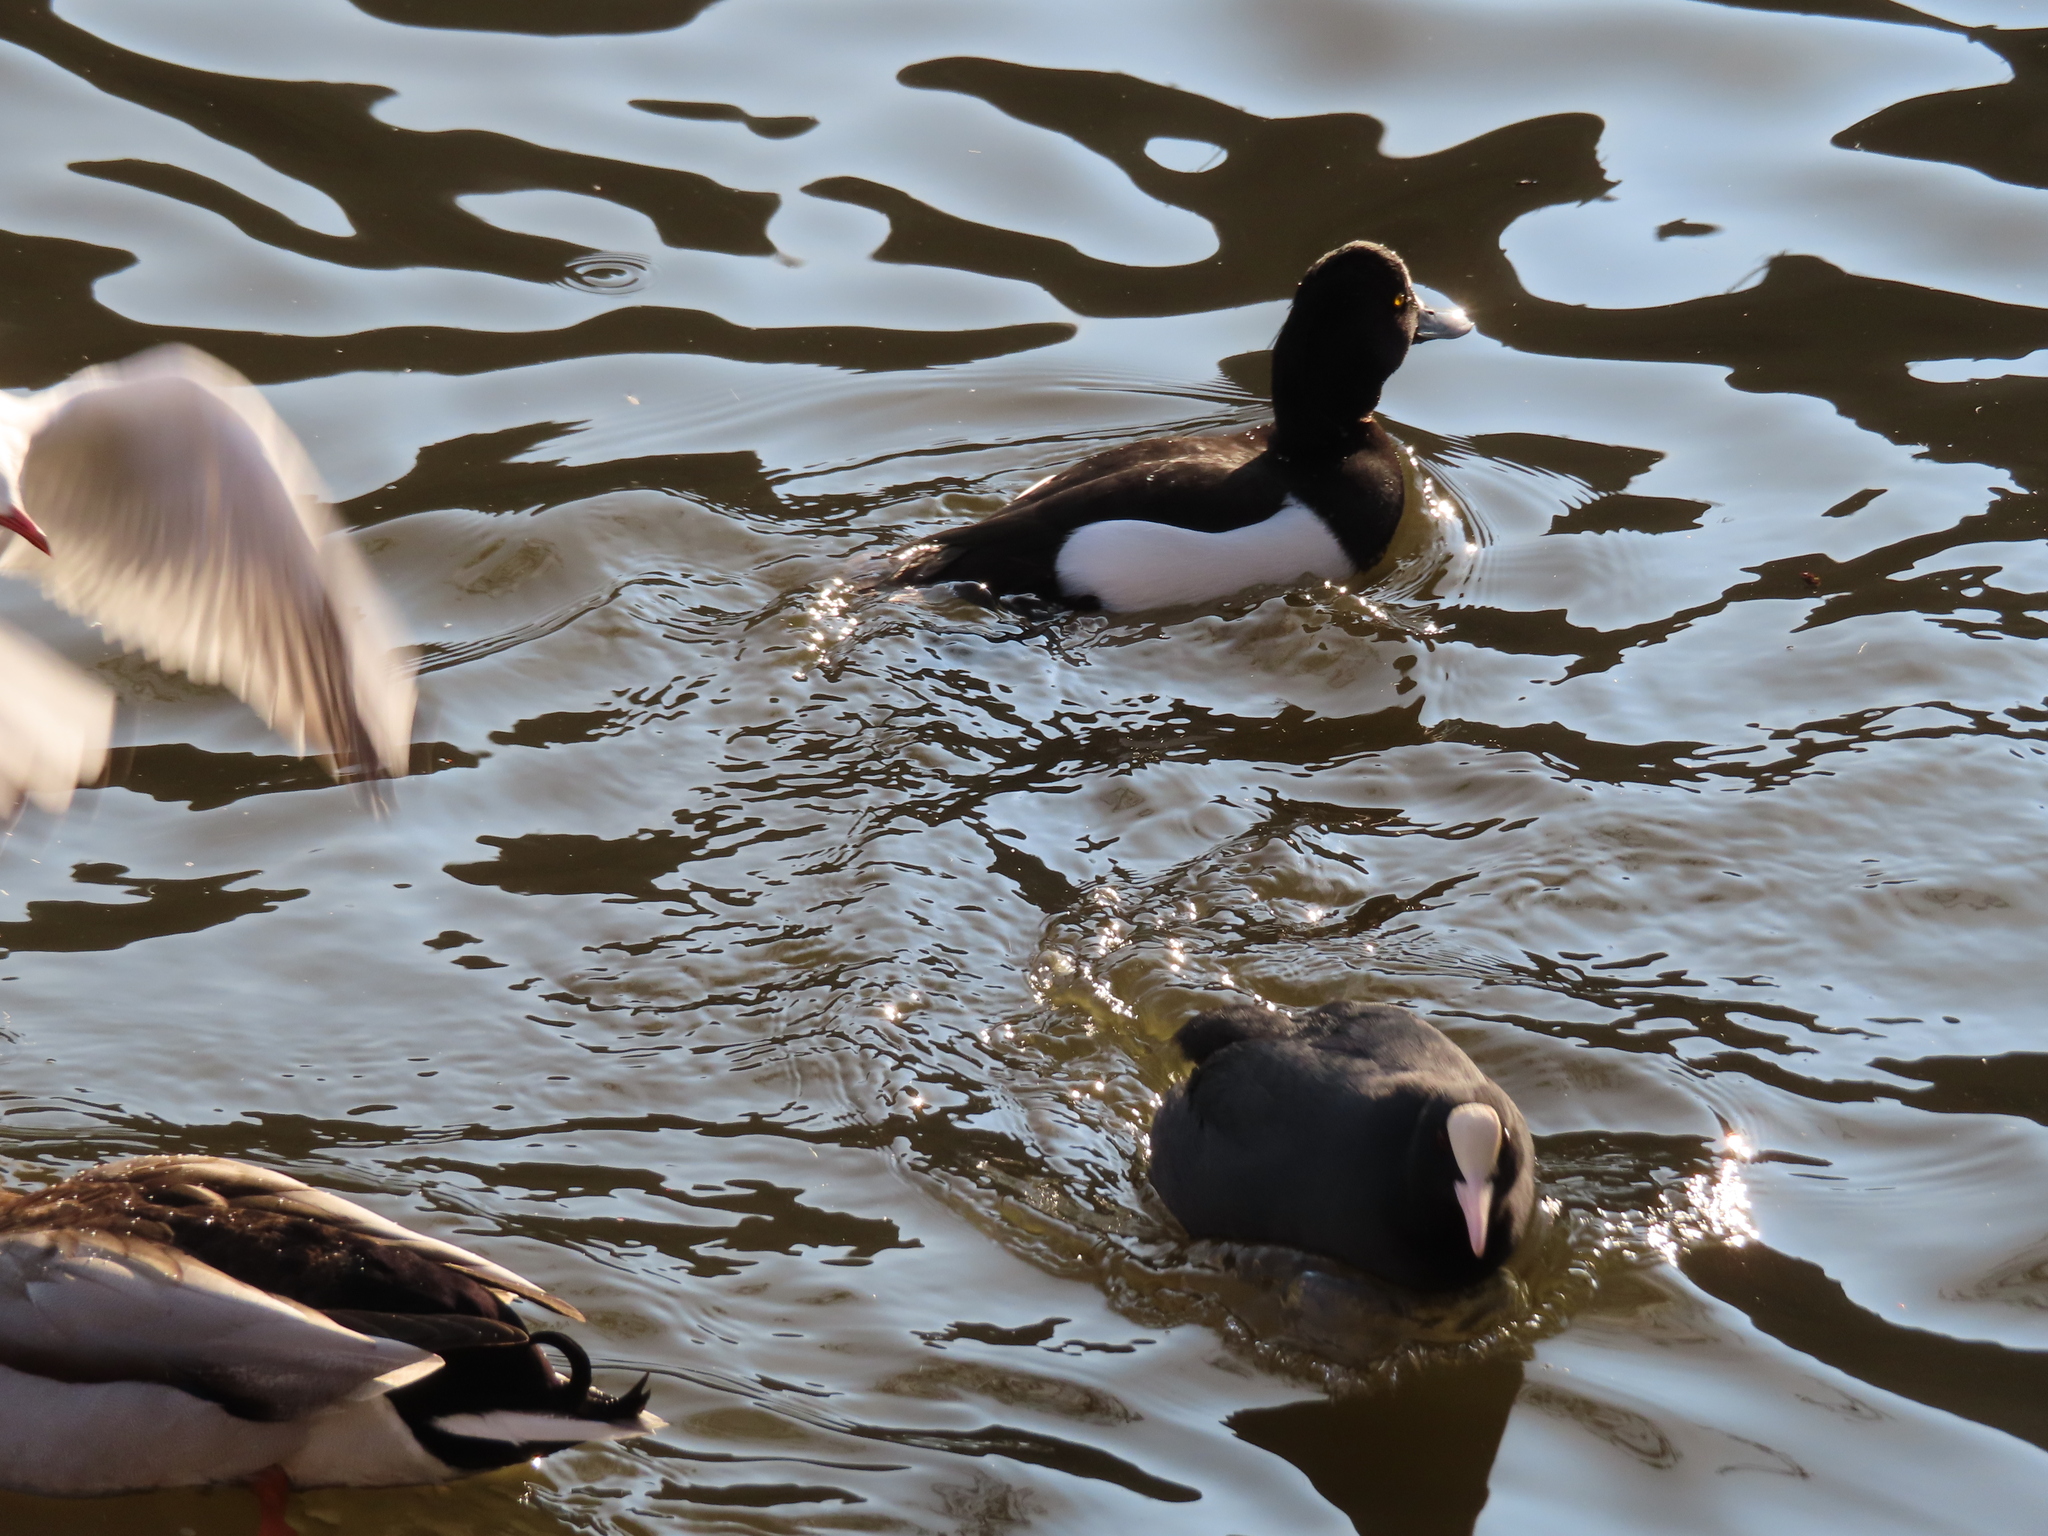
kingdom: Animalia
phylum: Chordata
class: Aves
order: Gruiformes
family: Rallidae
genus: Fulica
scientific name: Fulica atra
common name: Eurasian coot
